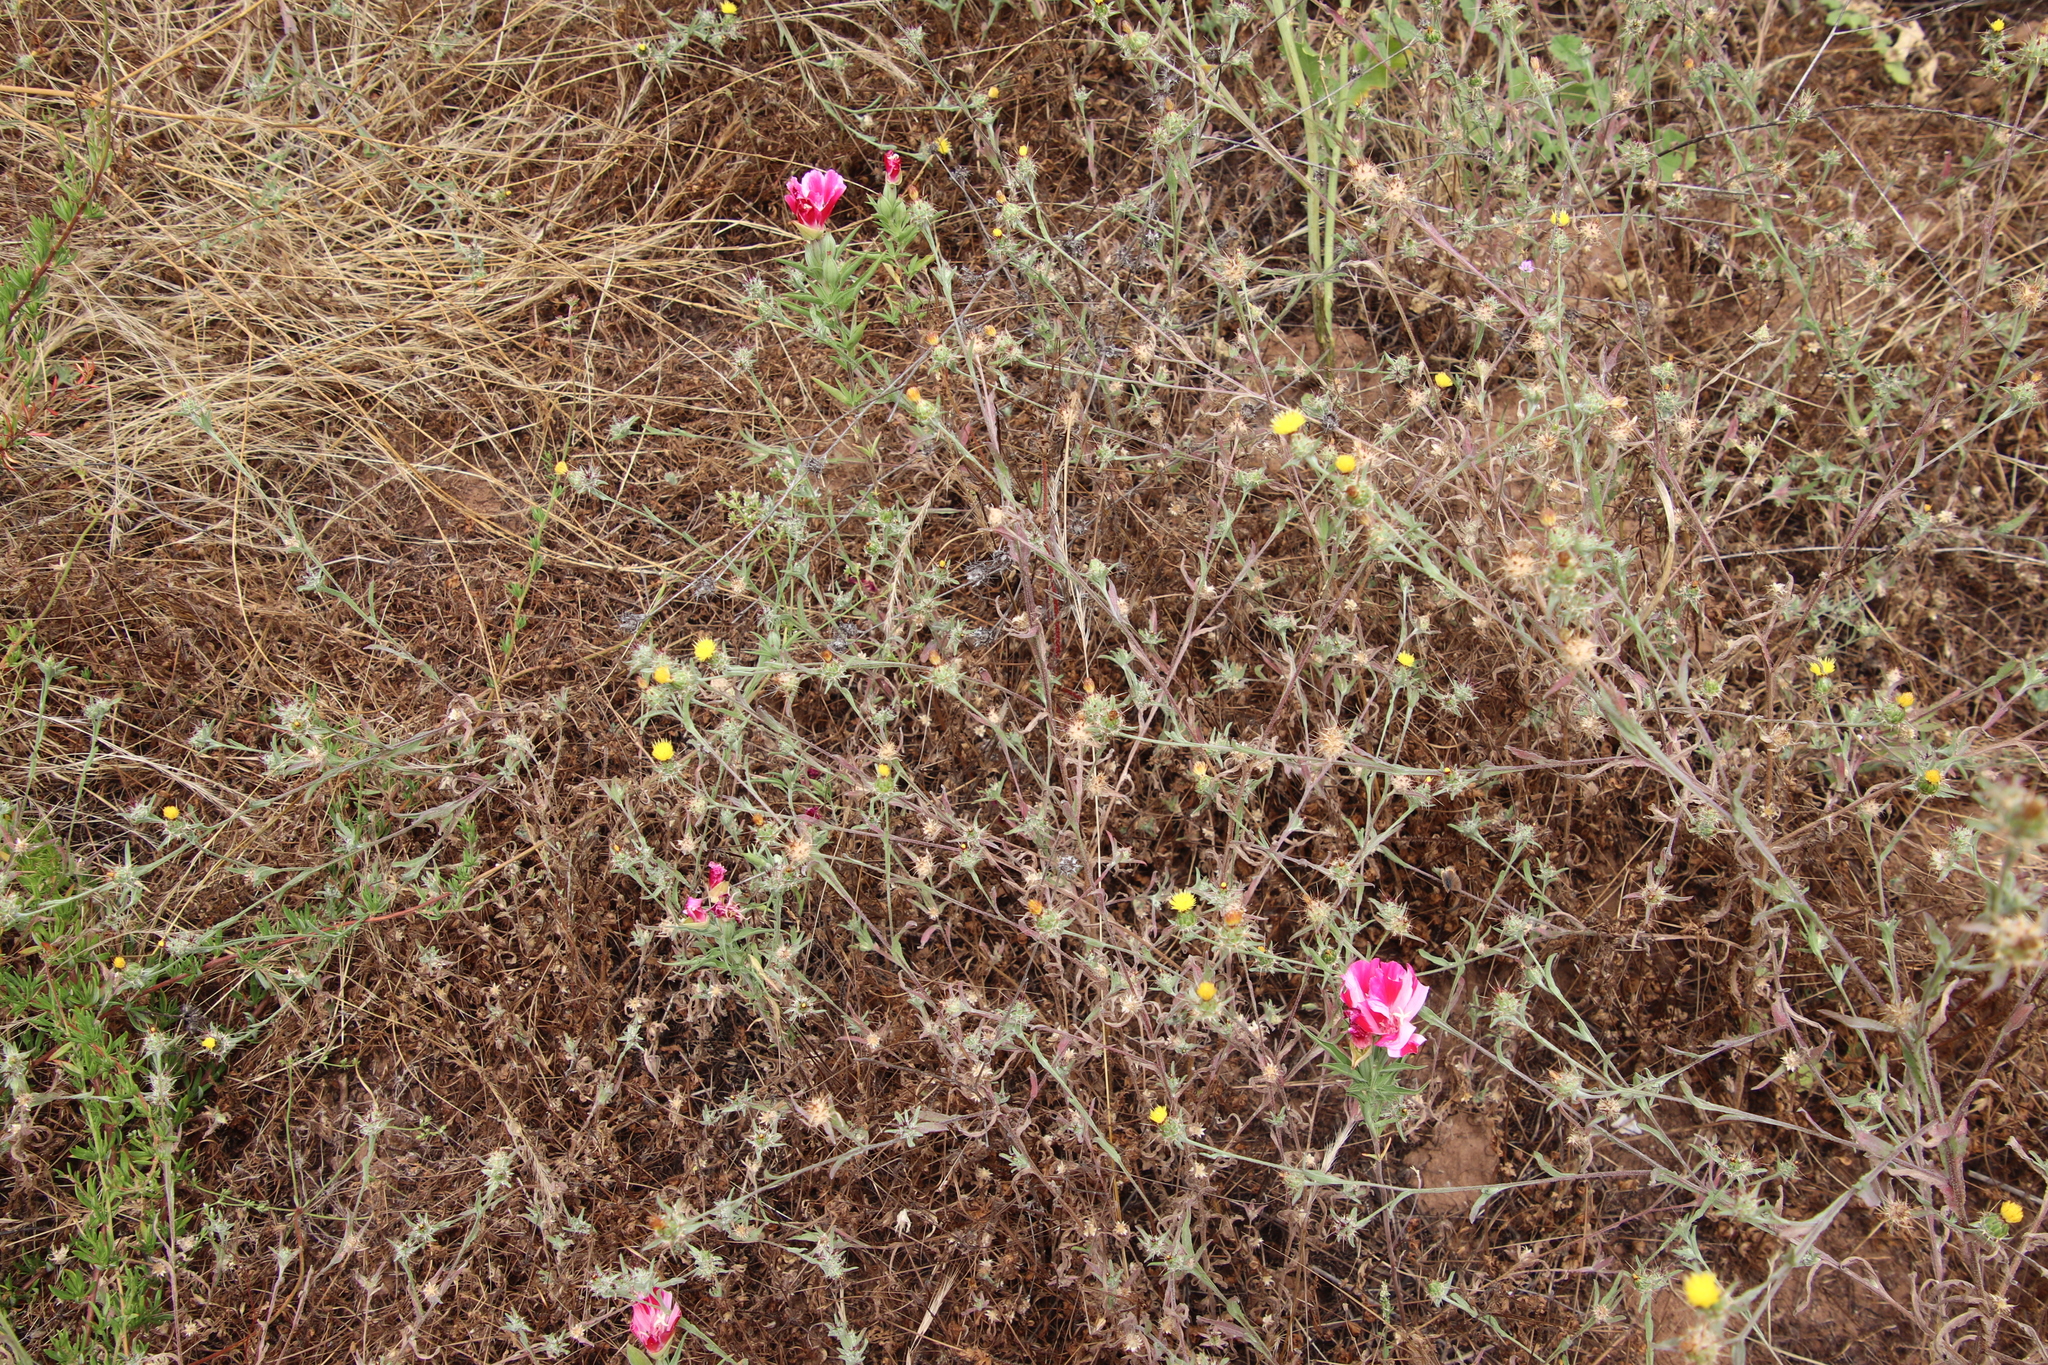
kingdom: Plantae
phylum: Tracheophyta
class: Magnoliopsida
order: Myrtales
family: Onagraceae
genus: Clarkia
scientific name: Clarkia amoena
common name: Godetia
